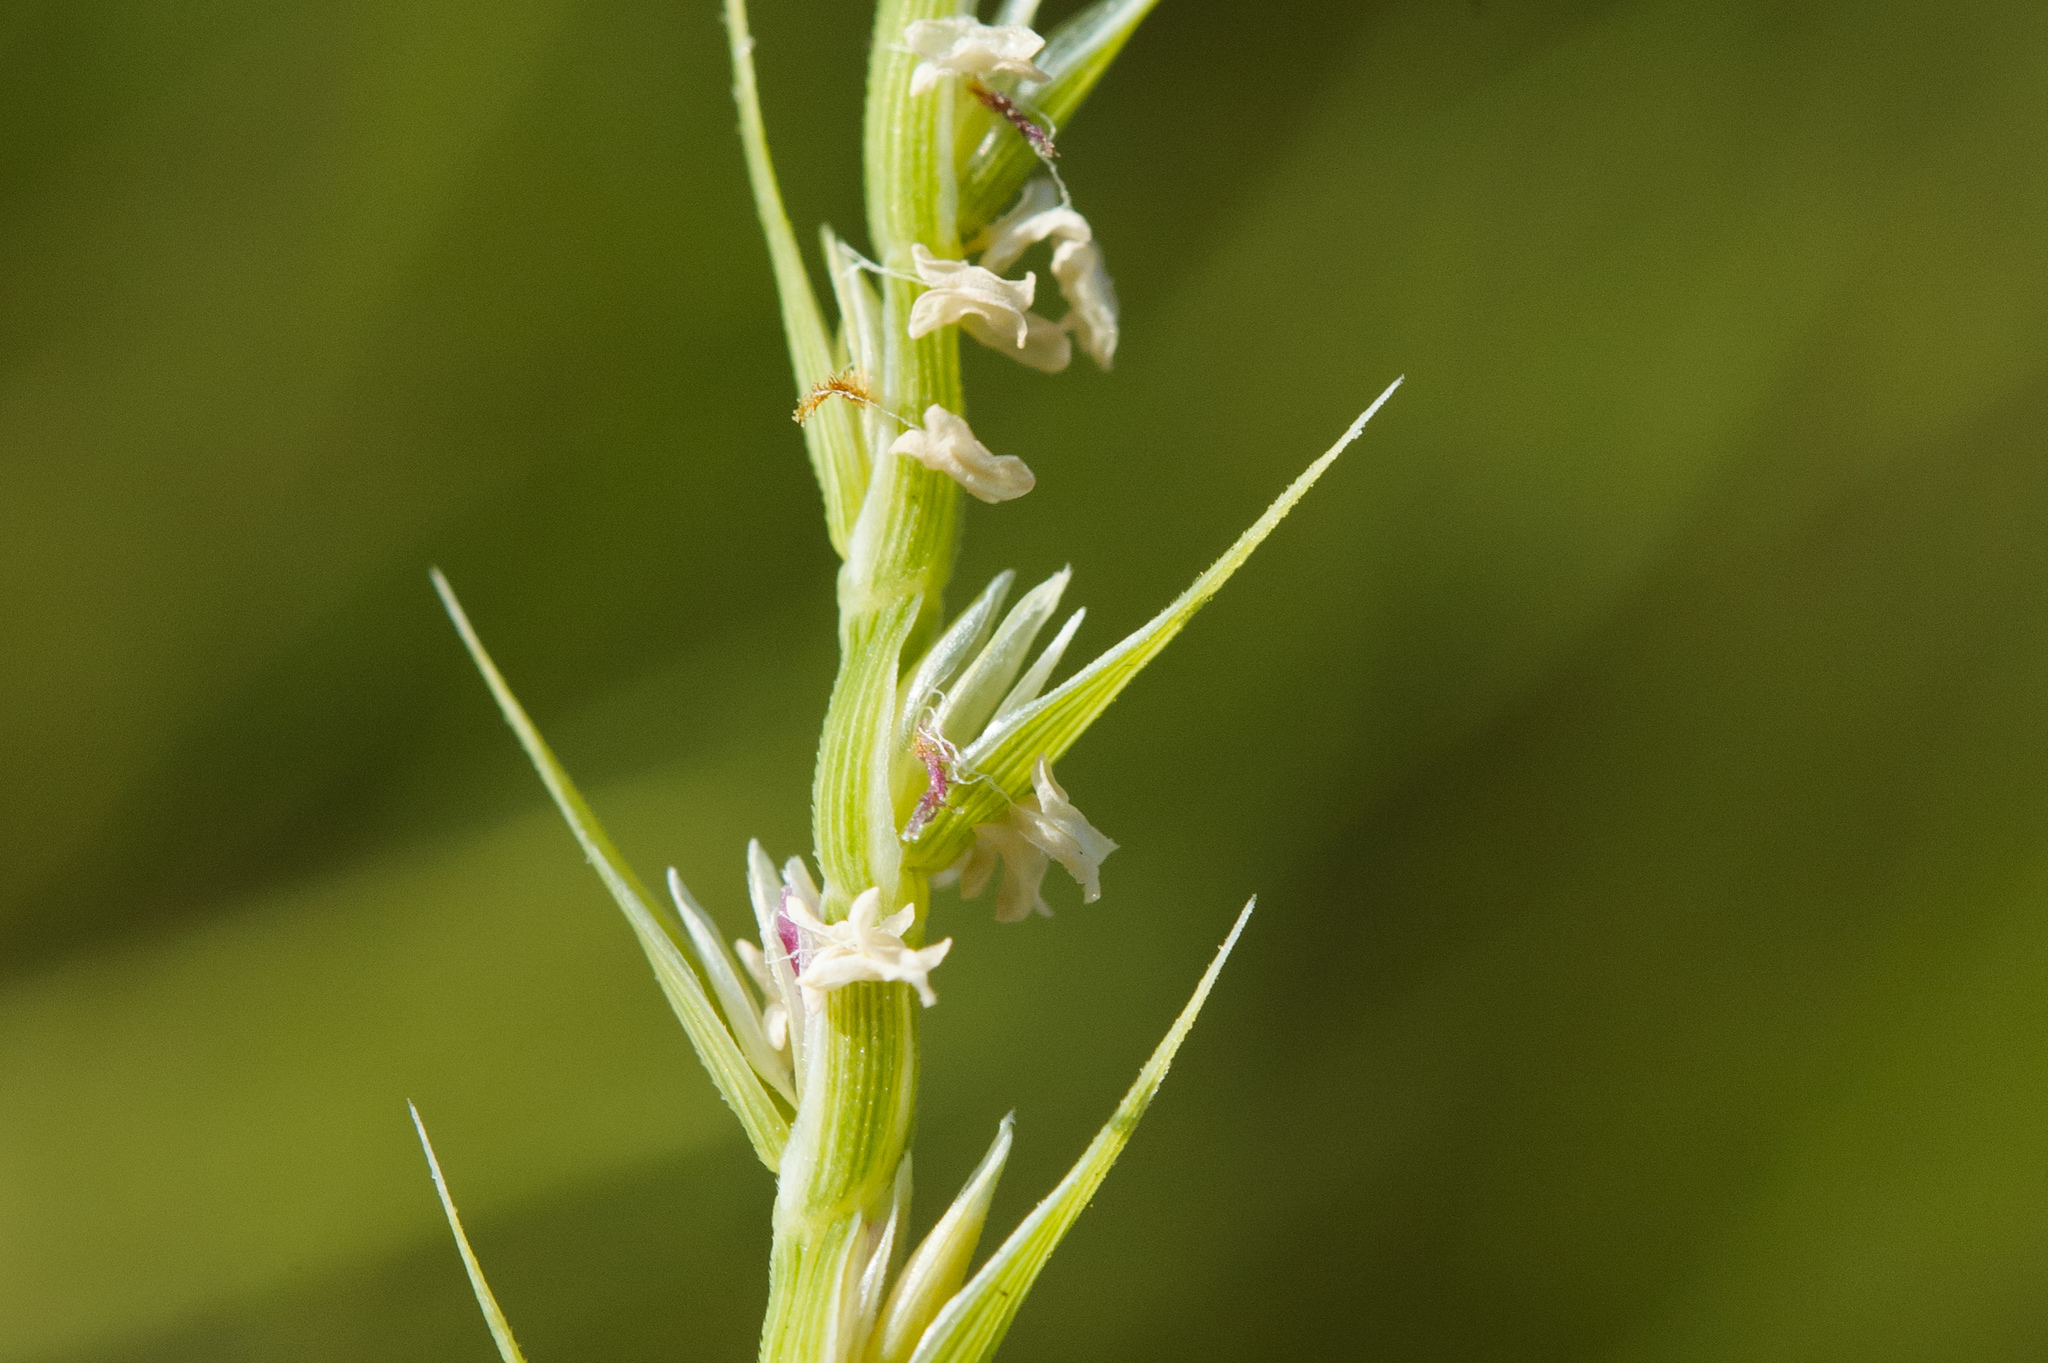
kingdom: Plantae
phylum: Tracheophyta
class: Liliopsida
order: Poales
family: Poaceae
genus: Lepturus
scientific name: Lepturus repens
